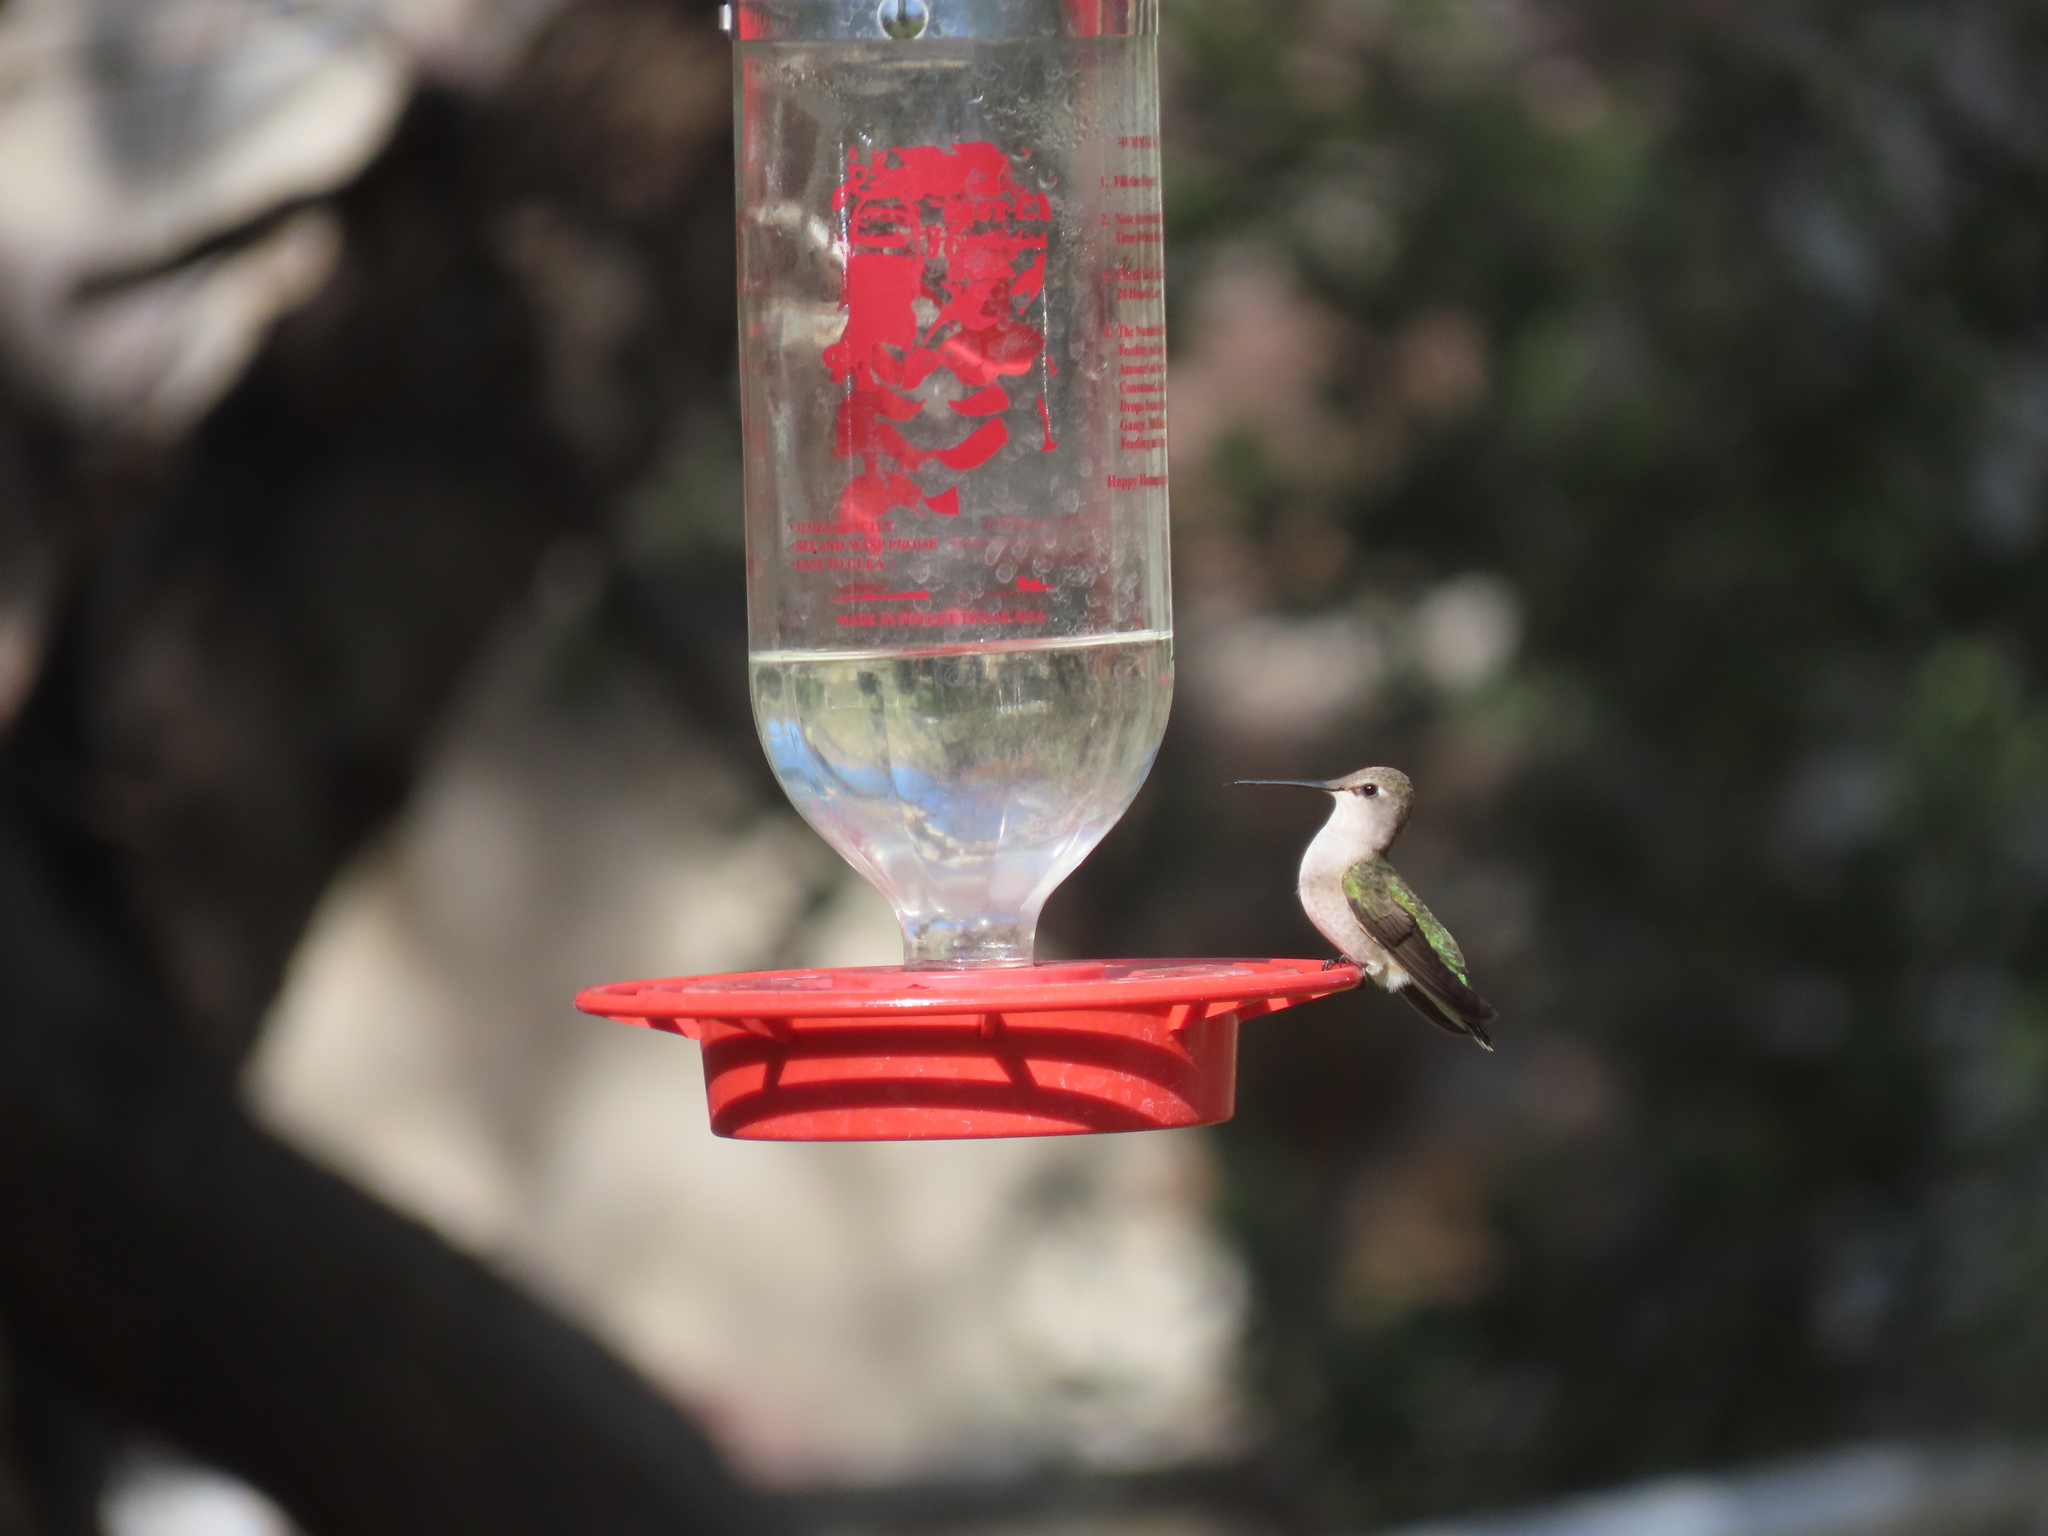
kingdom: Animalia
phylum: Chordata
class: Aves
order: Apodiformes
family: Trochilidae
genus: Archilochus
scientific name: Archilochus alexandri
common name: Black-chinned hummingbird
